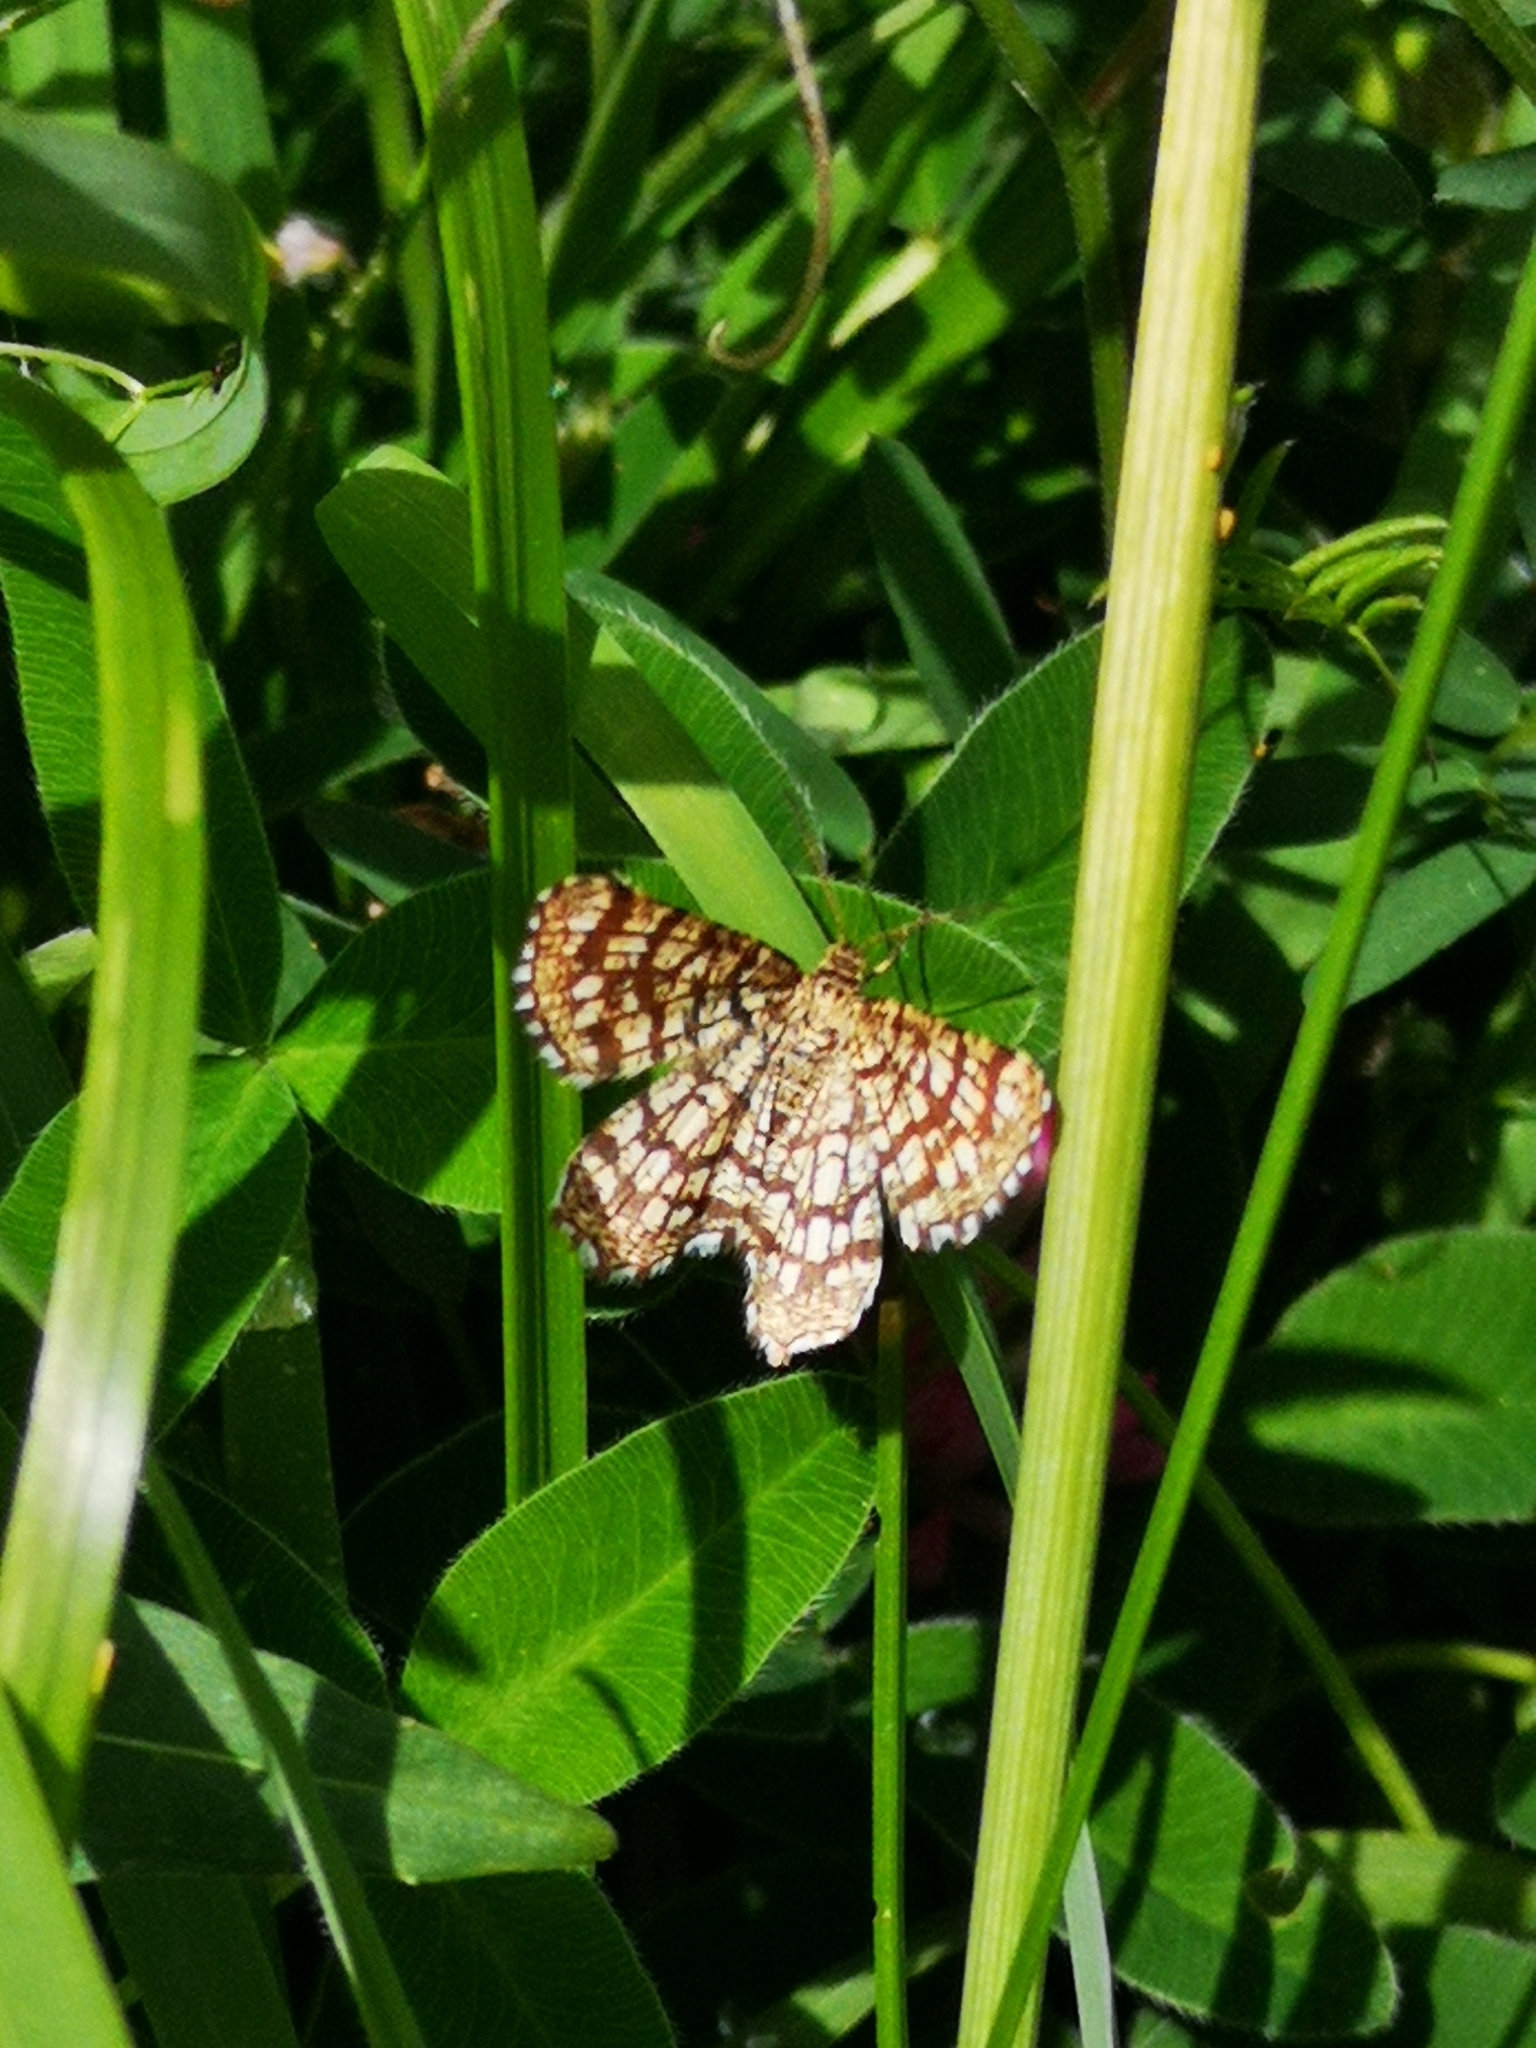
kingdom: Animalia
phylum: Arthropoda
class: Insecta
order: Lepidoptera
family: Geometridae
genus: Chiasmia
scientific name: Chiasmia clathrata
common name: Latticed heath
